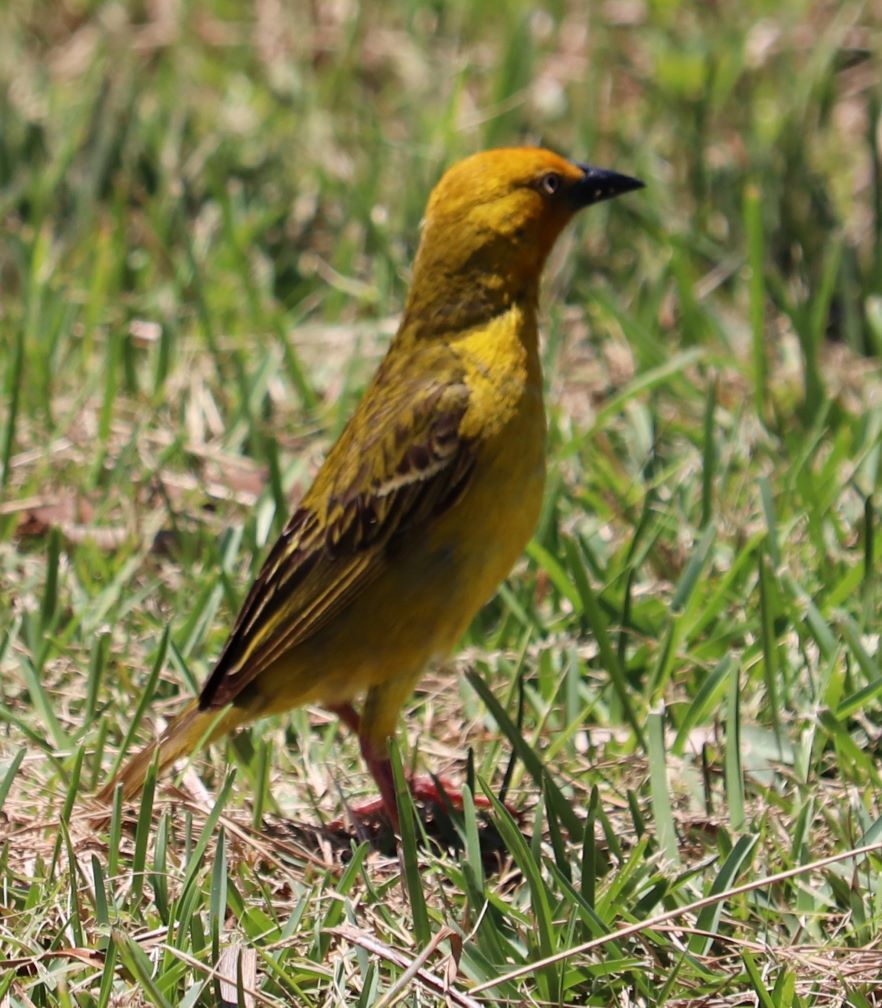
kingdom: Animalia
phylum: Chordata
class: Aves
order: Passeriformes
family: Ploceidae
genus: Ploceus
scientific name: Ploceus capensis
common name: Cape weaver
